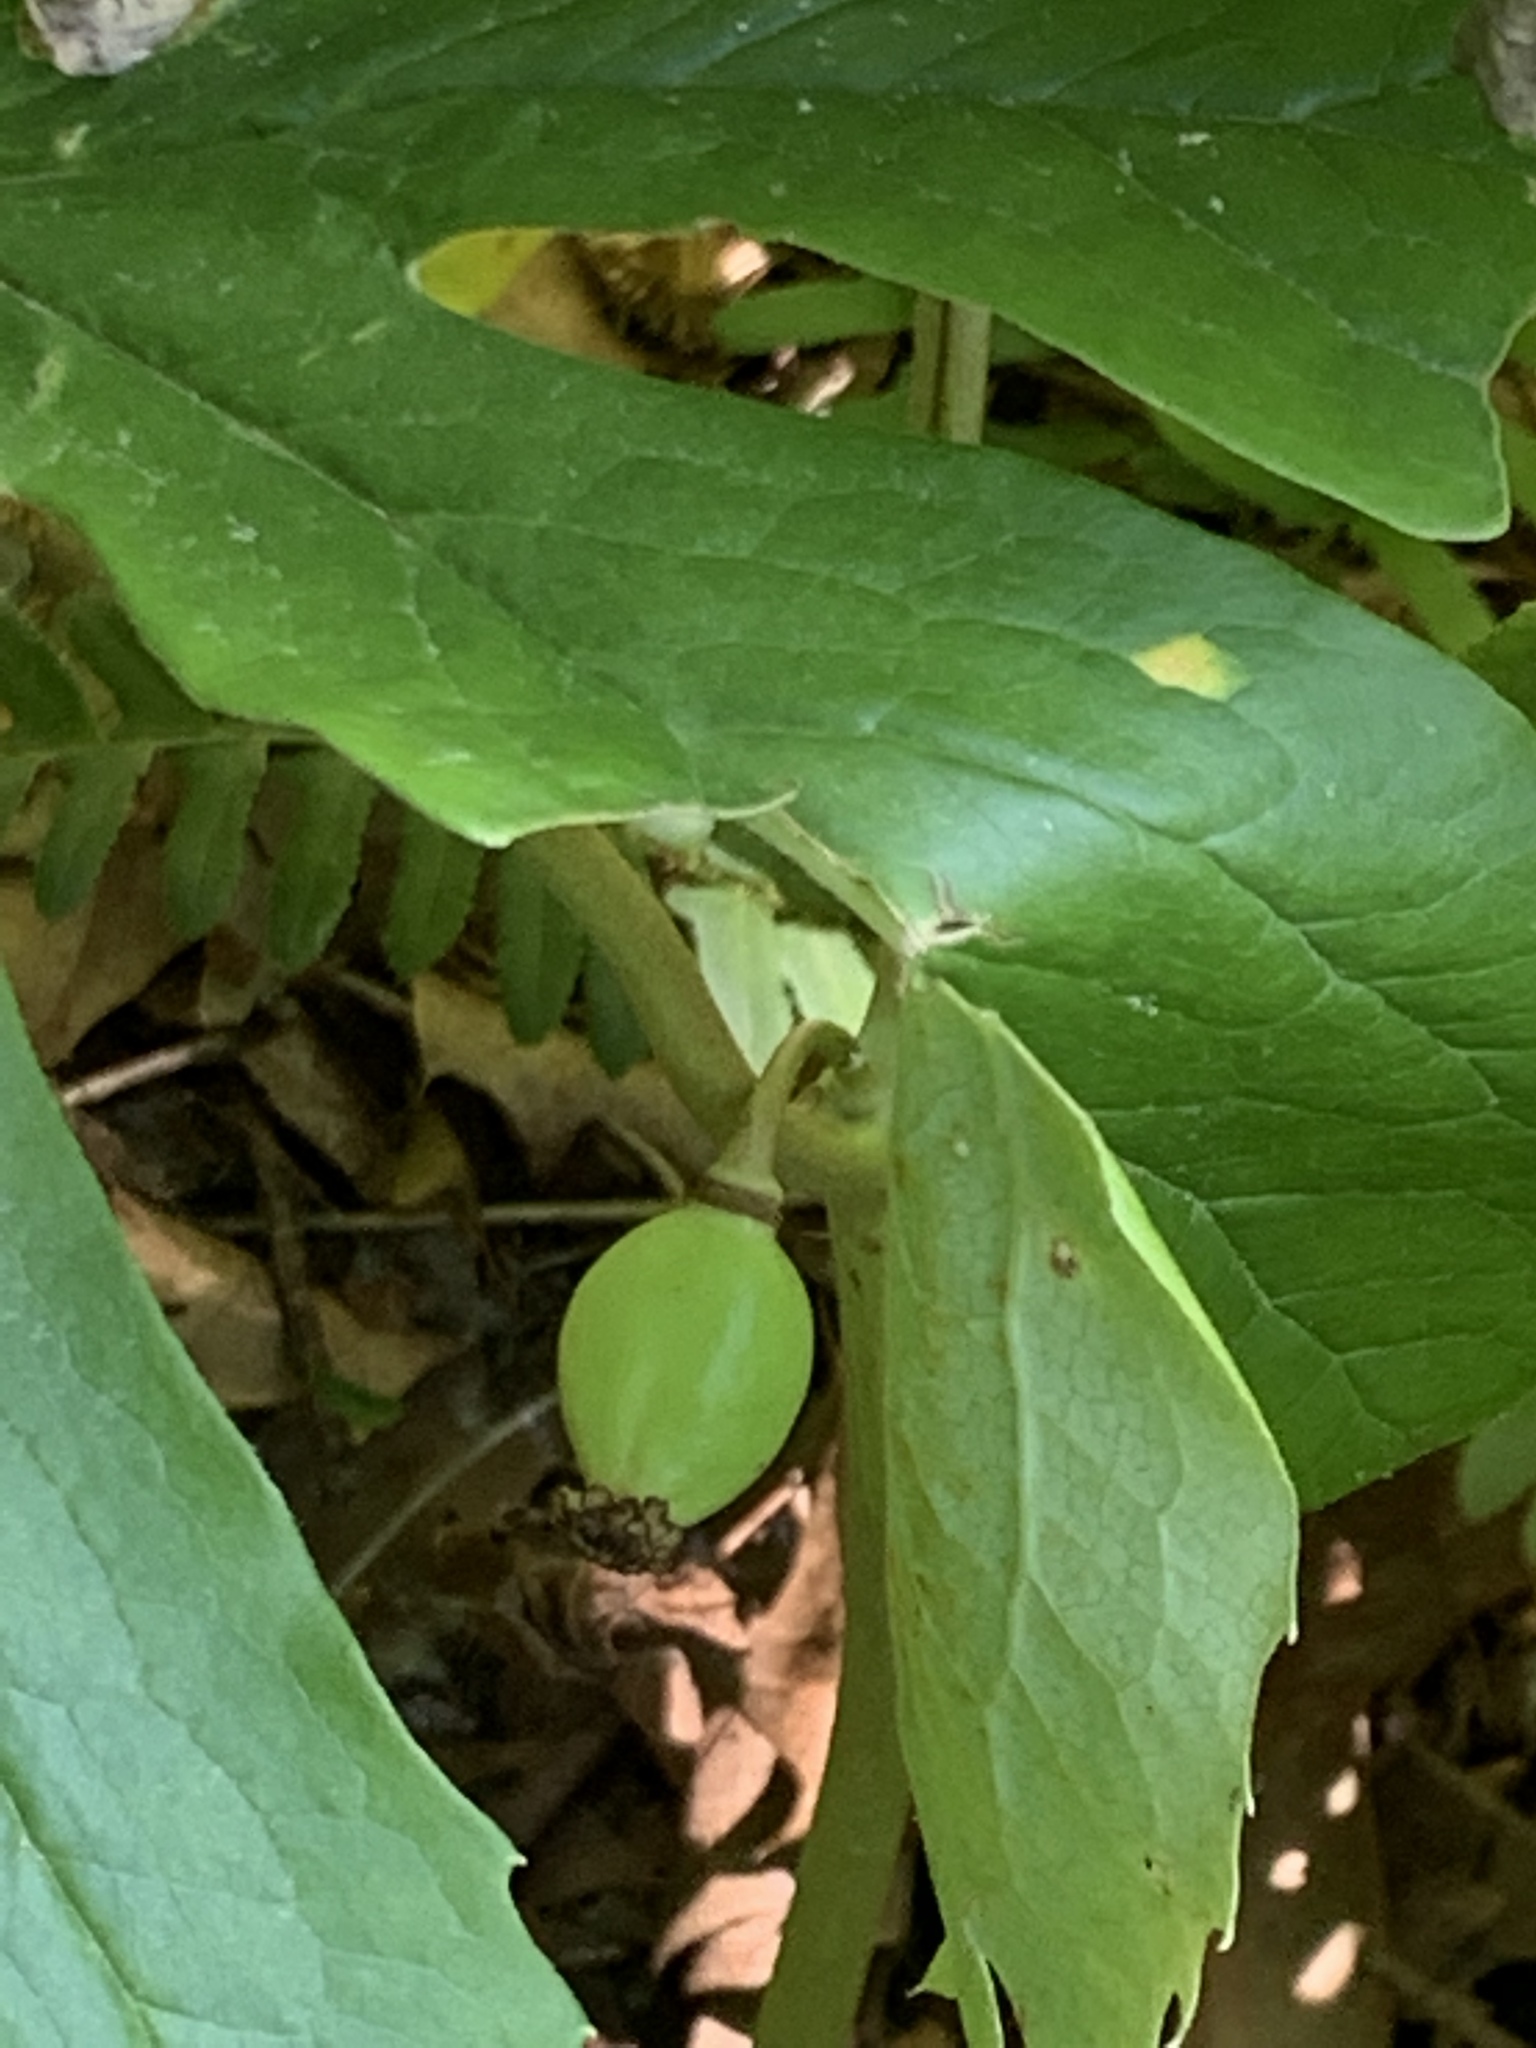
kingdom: Plantae
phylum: Tracheophyta
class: Magnoliopsida
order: Ranunculales
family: Berberidaceae
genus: Podophyllum
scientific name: Podophyllum peltatum
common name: Wild mandrake
